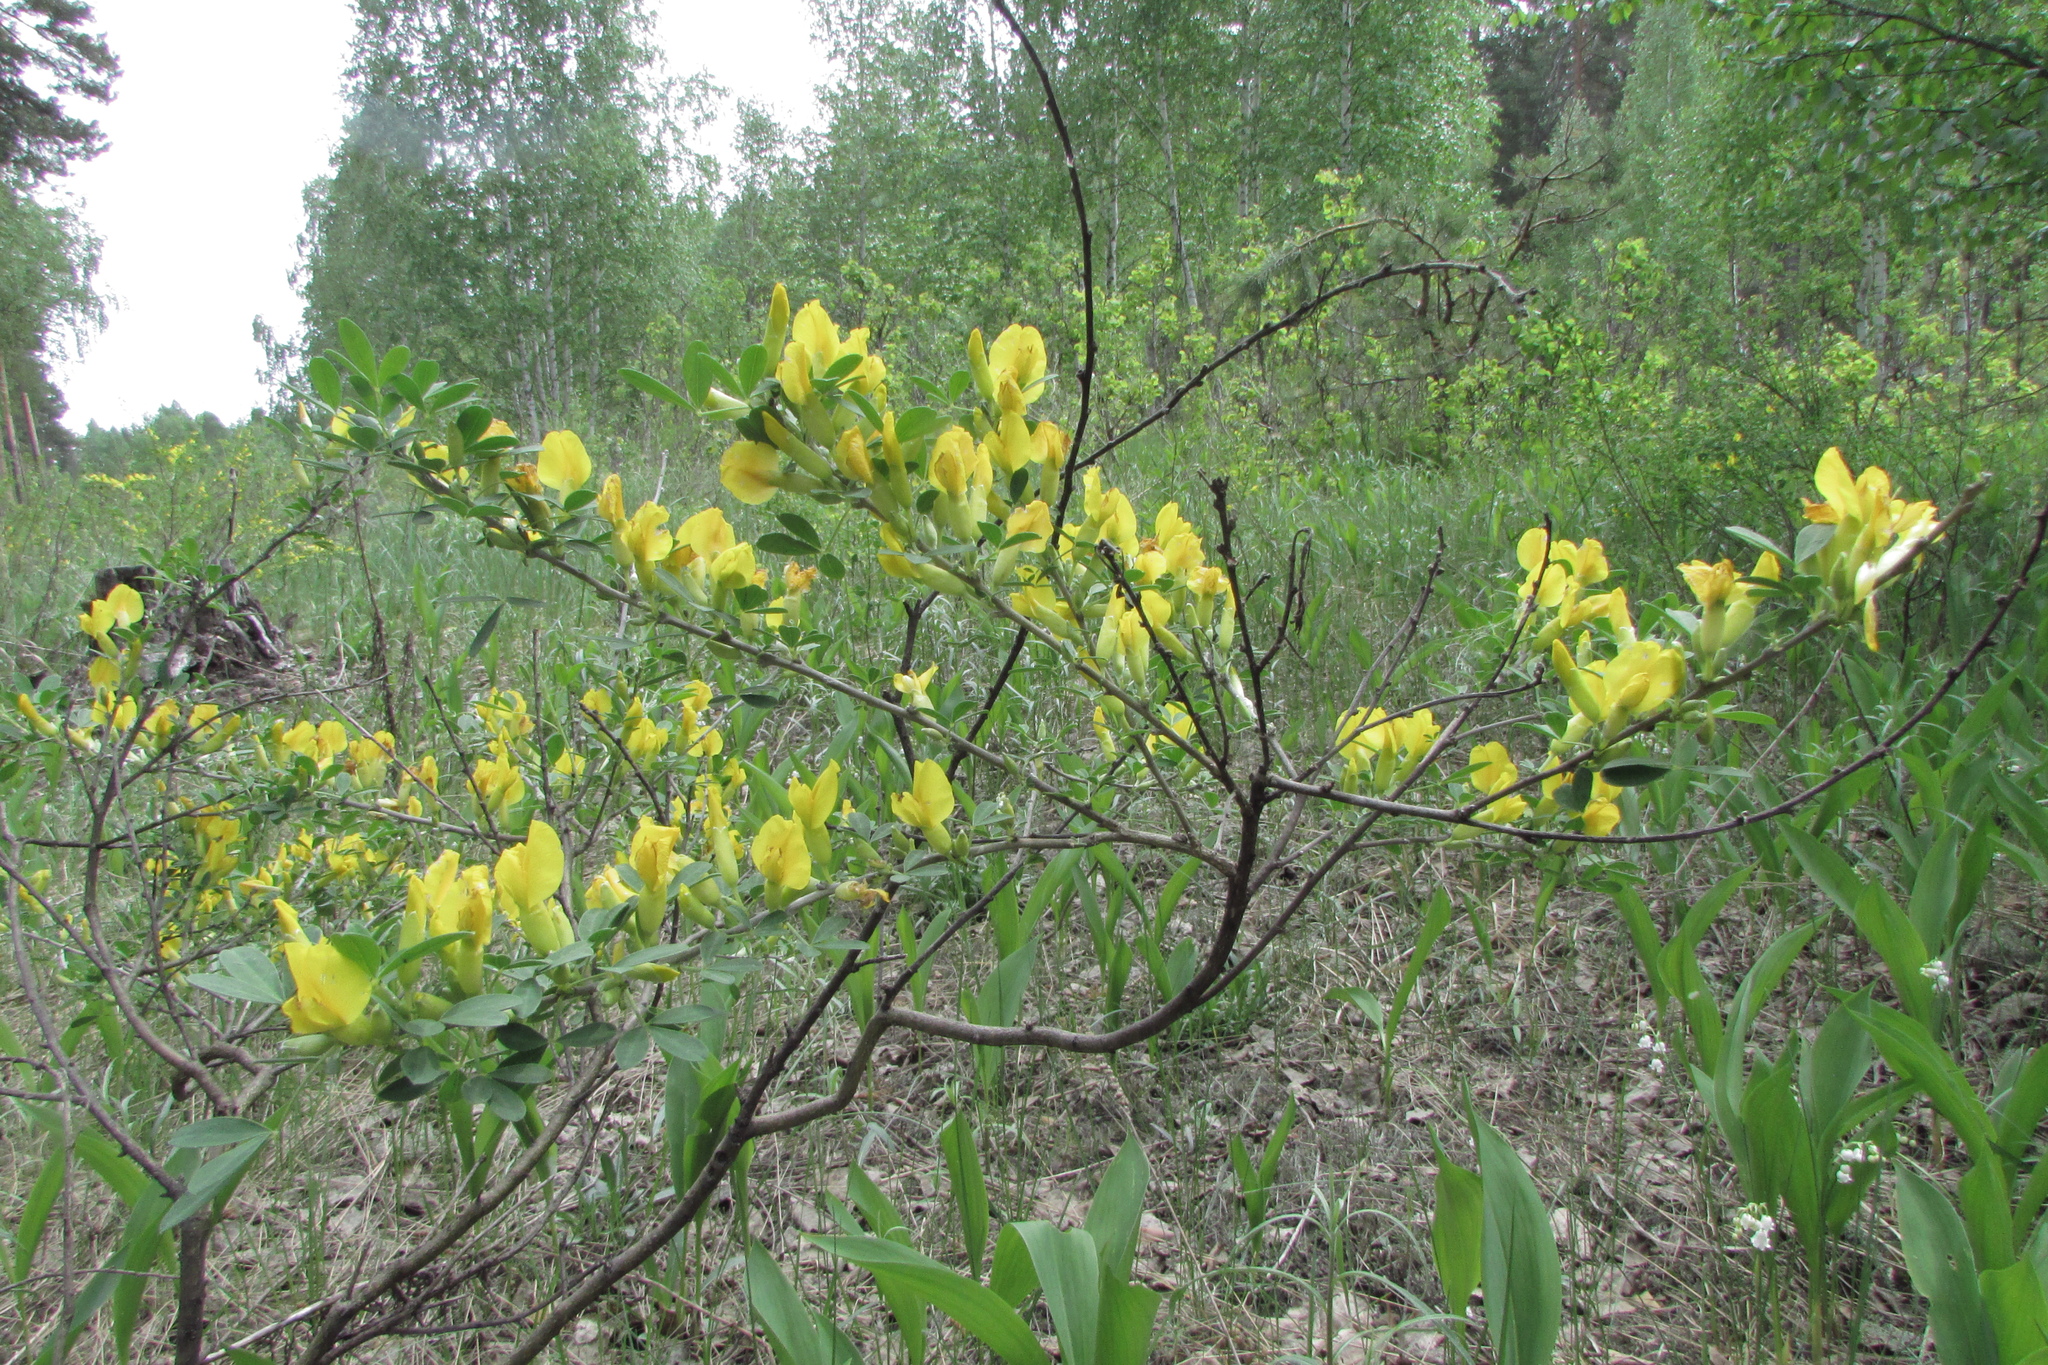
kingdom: Plantae
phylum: Tracheophyta
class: Magnoliopsida
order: Fabales
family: Fabaceae
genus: Chamaecytisus
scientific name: Chamaecytisus ruthenicus
